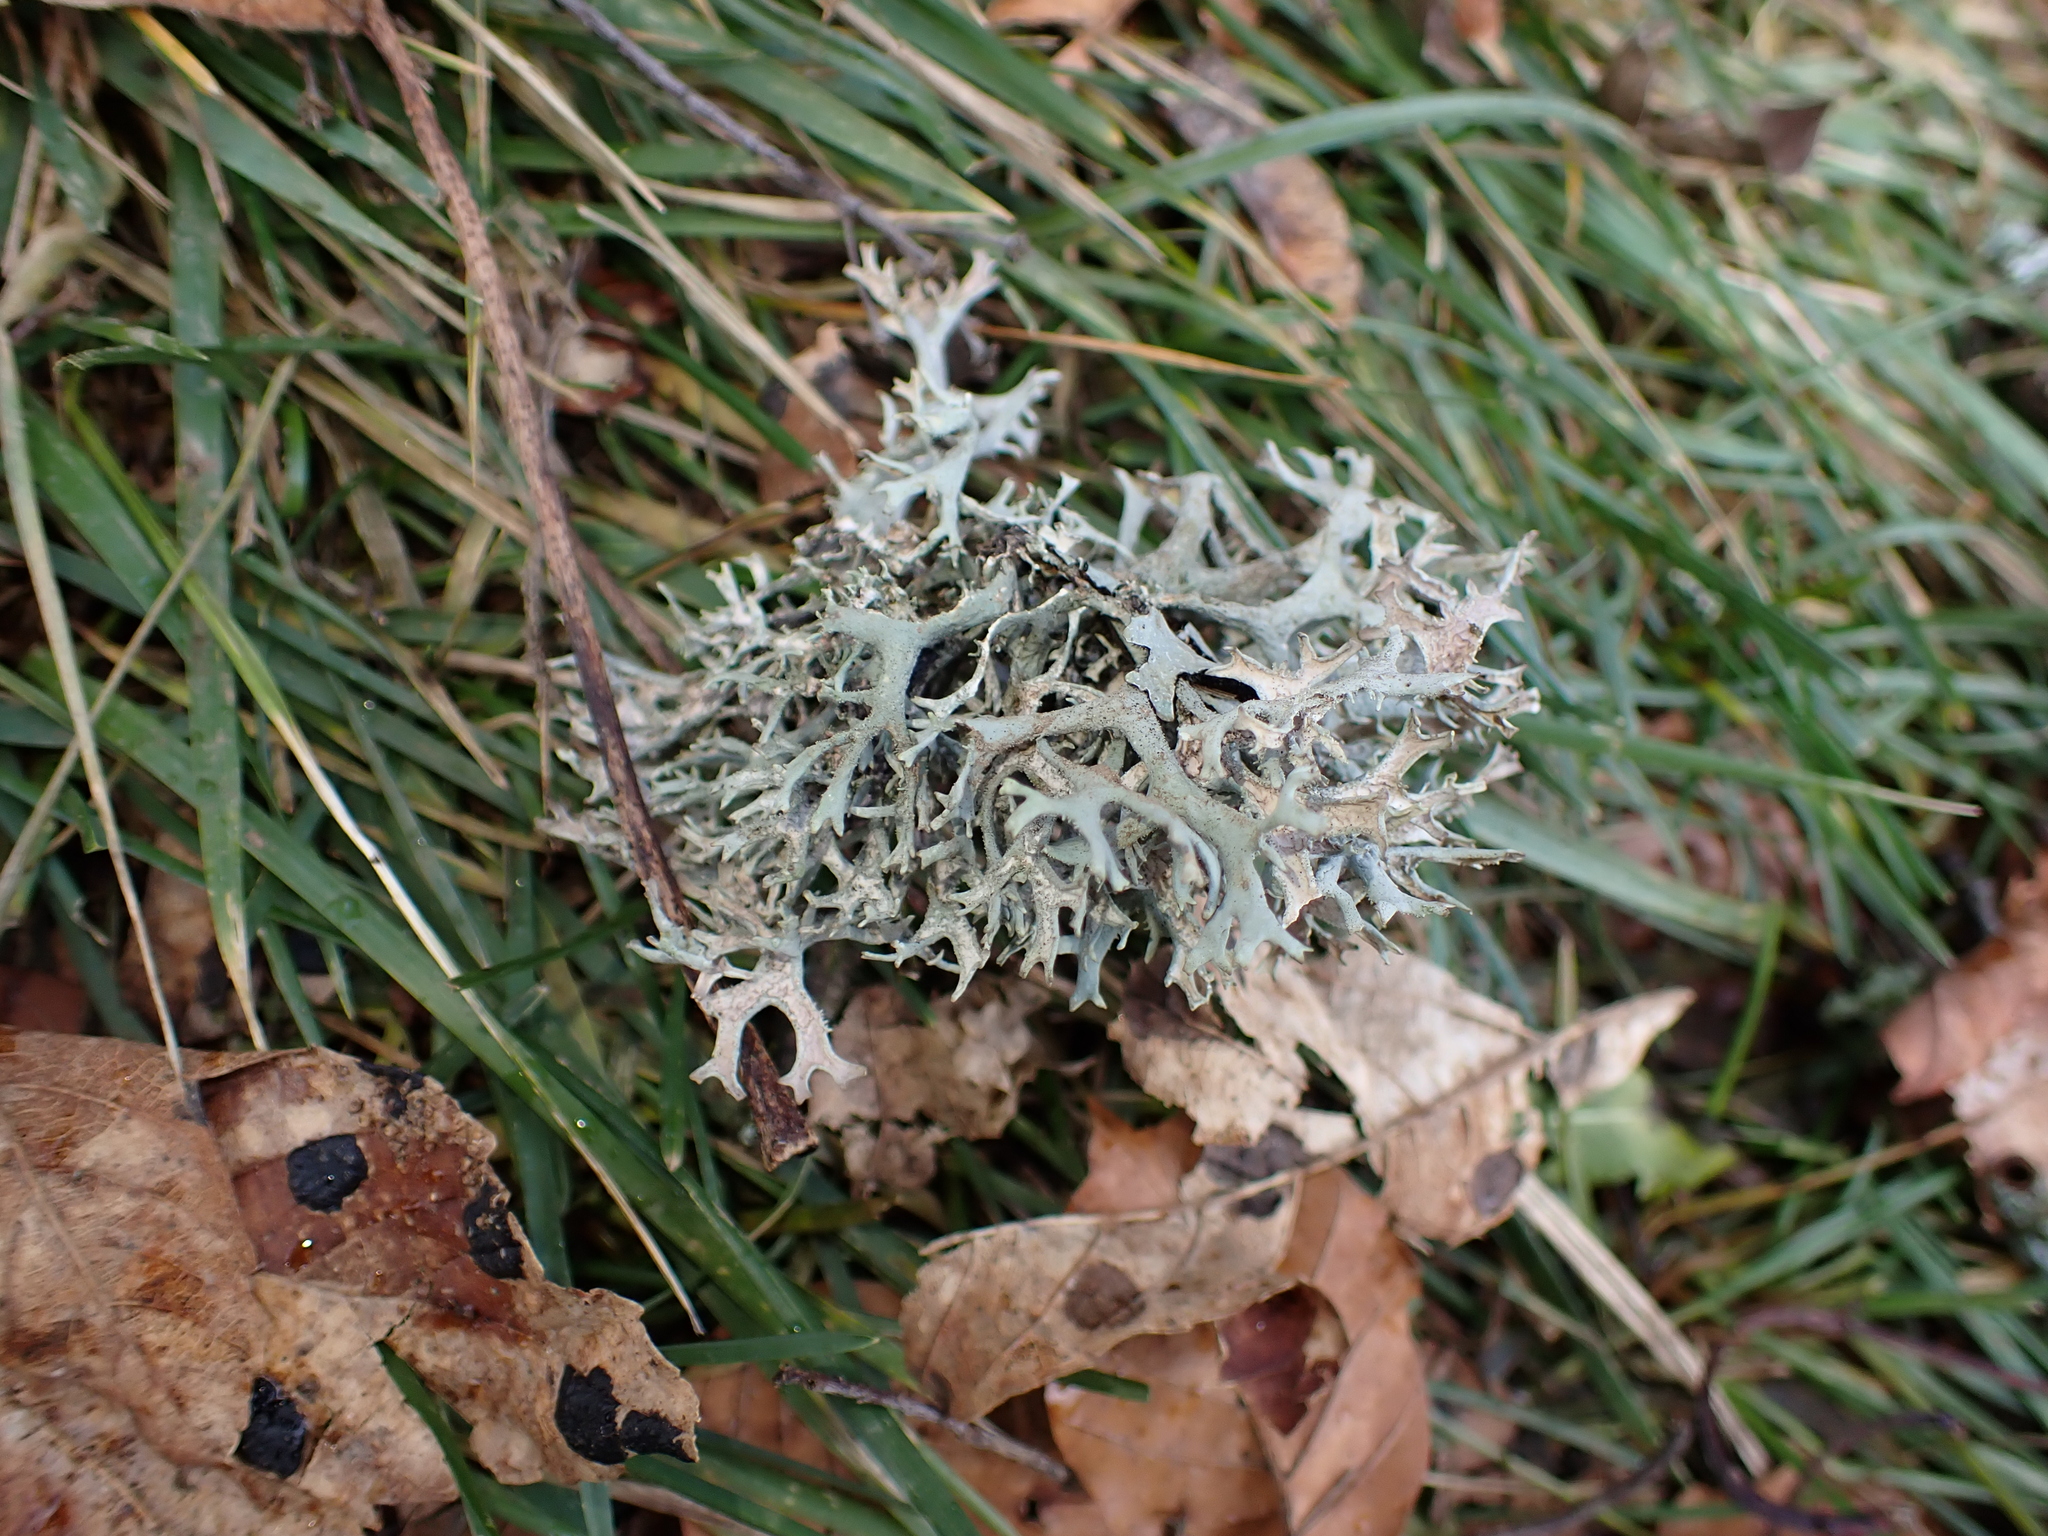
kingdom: Fungi
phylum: Ascomycota
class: Lecanoromycetes
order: Lecanorales
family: Parmeliaceae
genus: Pseudevernia
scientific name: Pseudevernia furfuracea
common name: Tree moss
